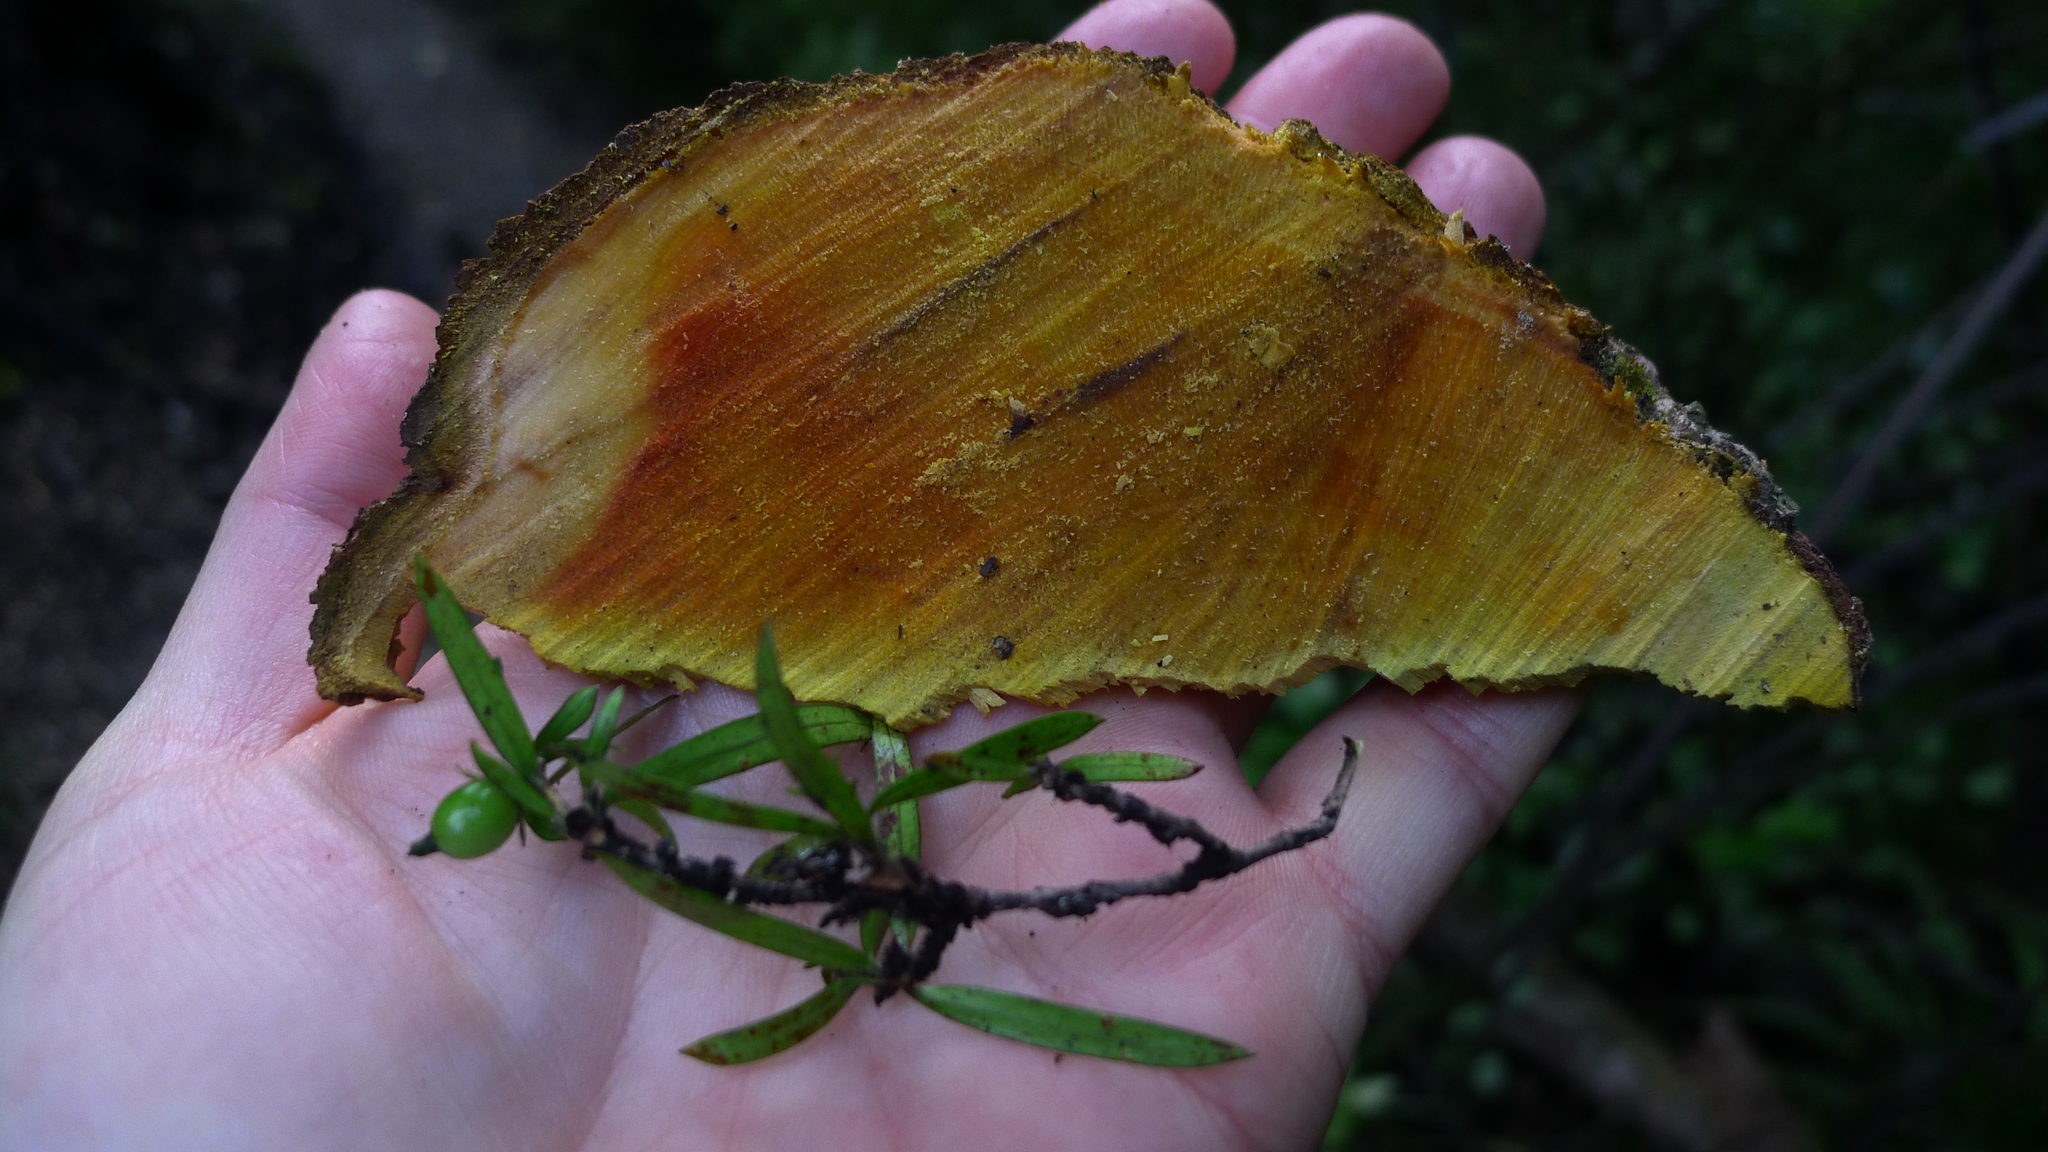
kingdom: Plantae
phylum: Tracheophyta
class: Magnoliopsida
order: Gentianales
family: Rubiaceae
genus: Coprosma
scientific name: Coprosma linariifolia
